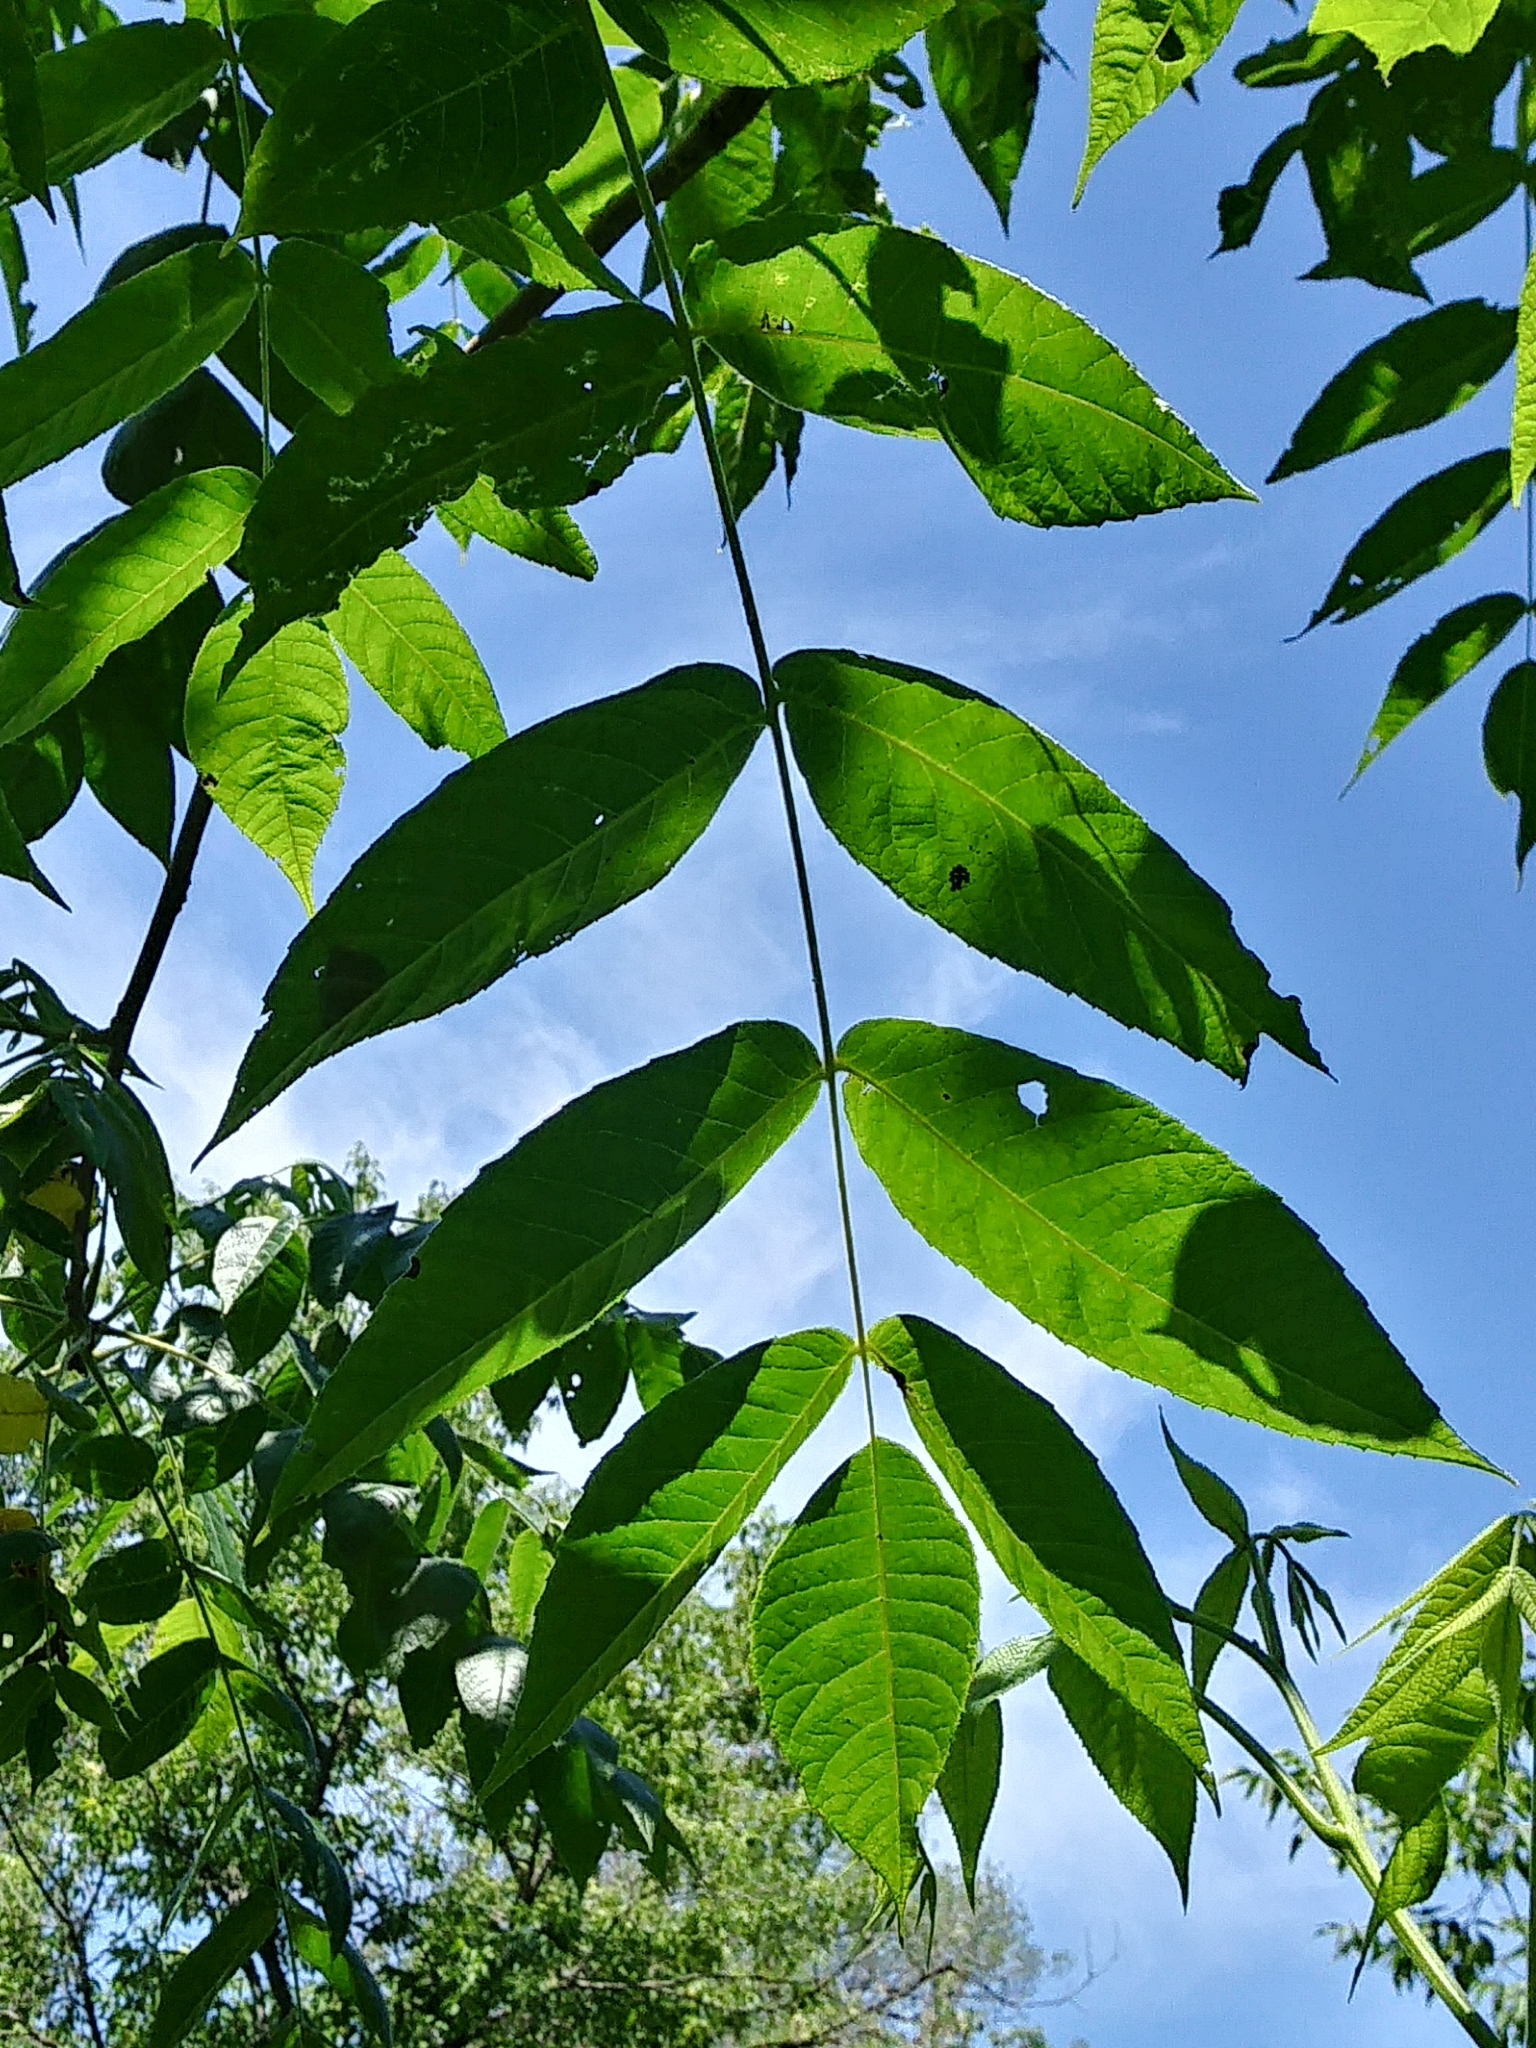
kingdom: Plantae
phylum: Tracheophyta
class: Magnoliopsida
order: Fagales
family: Juglandaceae
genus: Juglans
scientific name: Juglans cinerea
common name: Butternut
